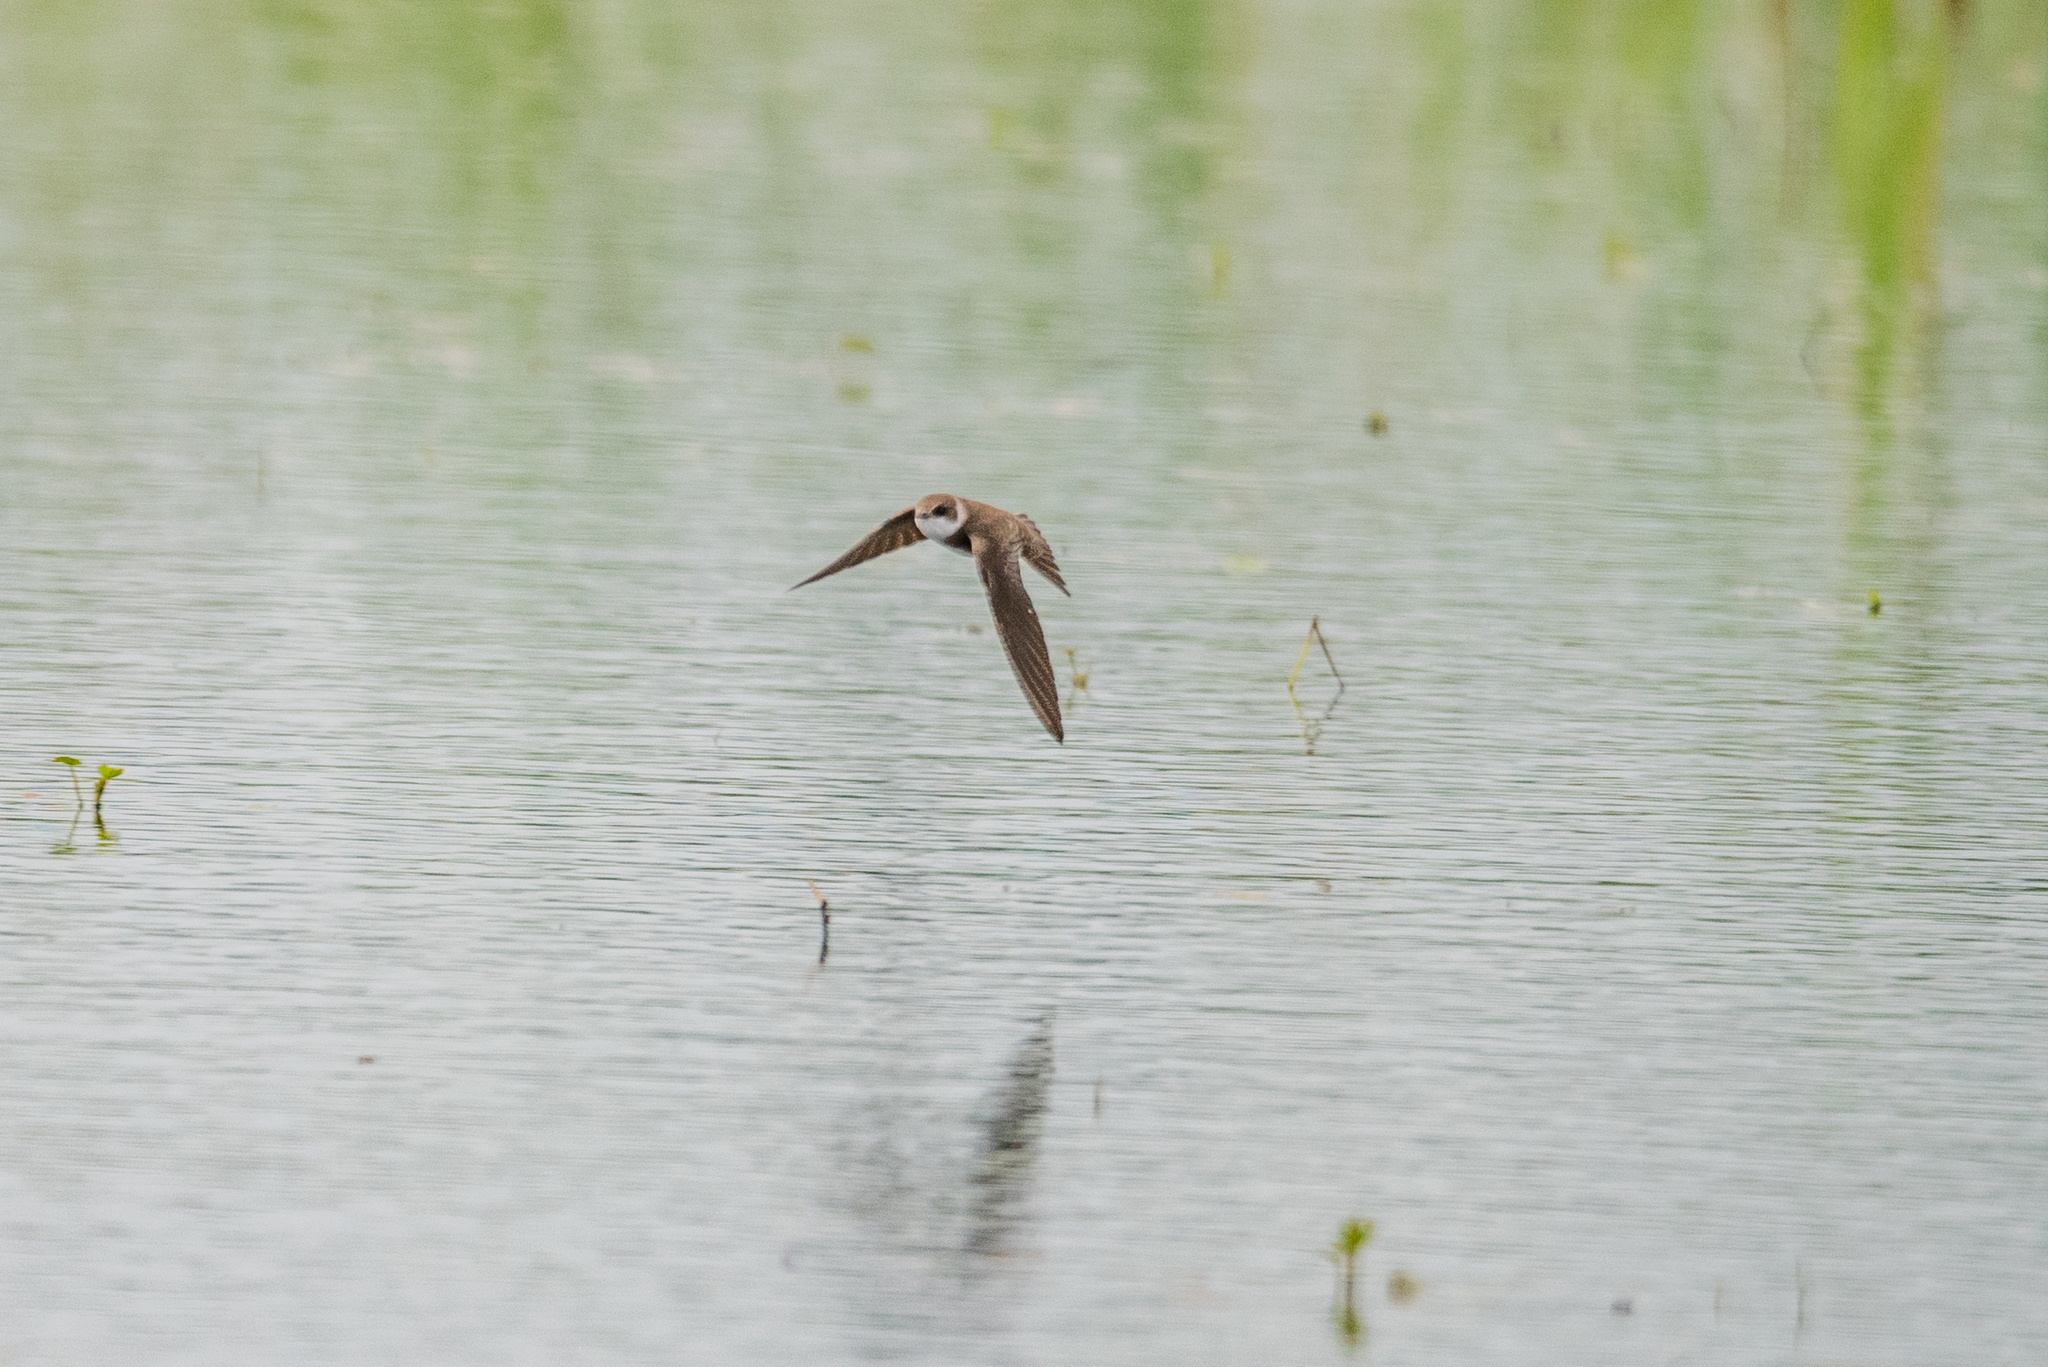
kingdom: Animalia
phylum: Chordata
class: Aves
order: Passeriformes
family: Hirundinidae
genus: Riparia
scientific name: Riparia riparia
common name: Sand martin
